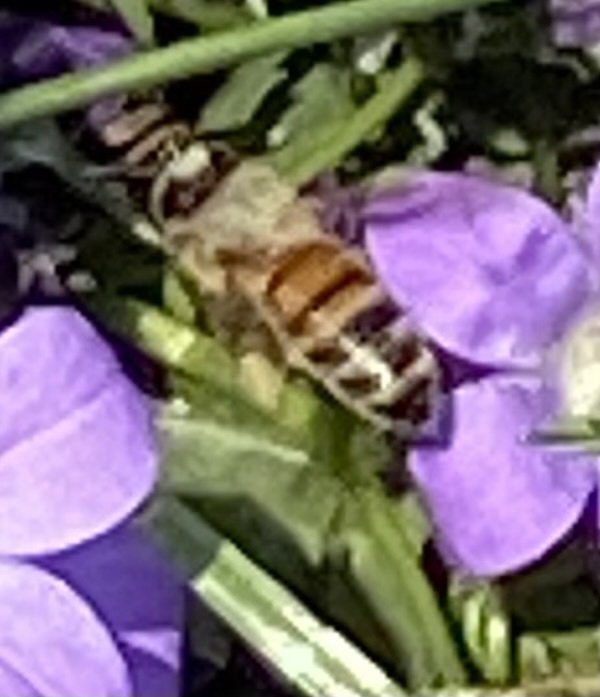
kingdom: Animalia
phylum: Arthropoda
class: Insecta
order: Hymenoptera
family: Apidae
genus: Apis
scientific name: Apis mellifera
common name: Honey bee
